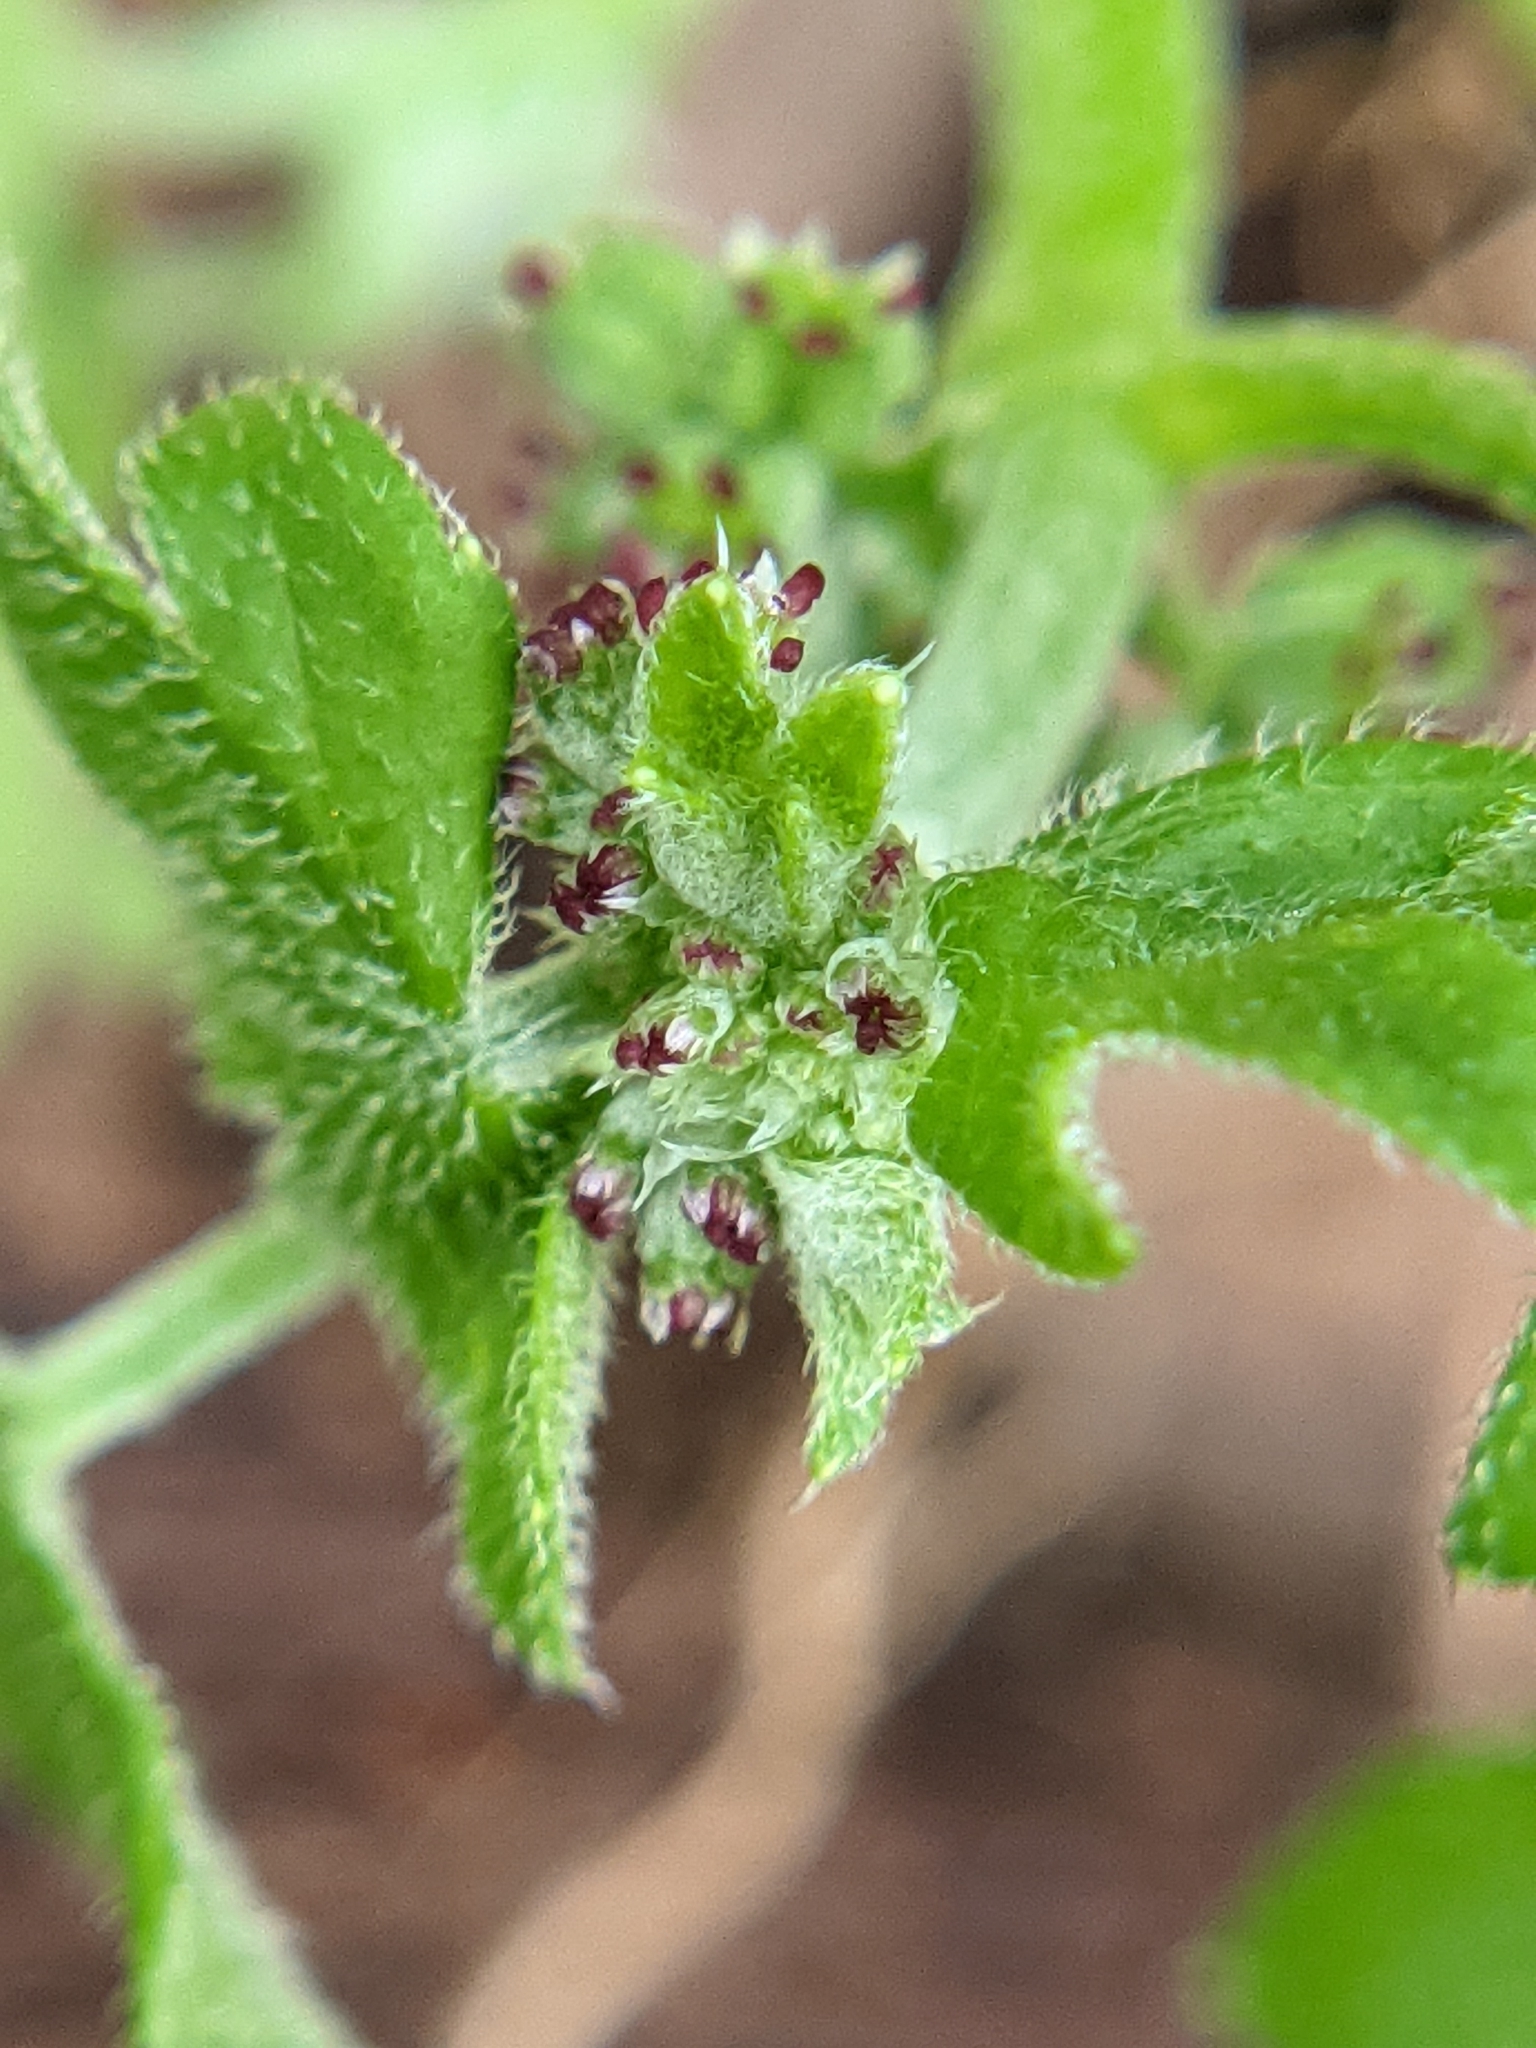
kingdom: Plantae
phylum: Tracheophyta
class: Magnoliopsida
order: Apiales
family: Apiaceae
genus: Bowlesia
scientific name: Bowlesia incana
